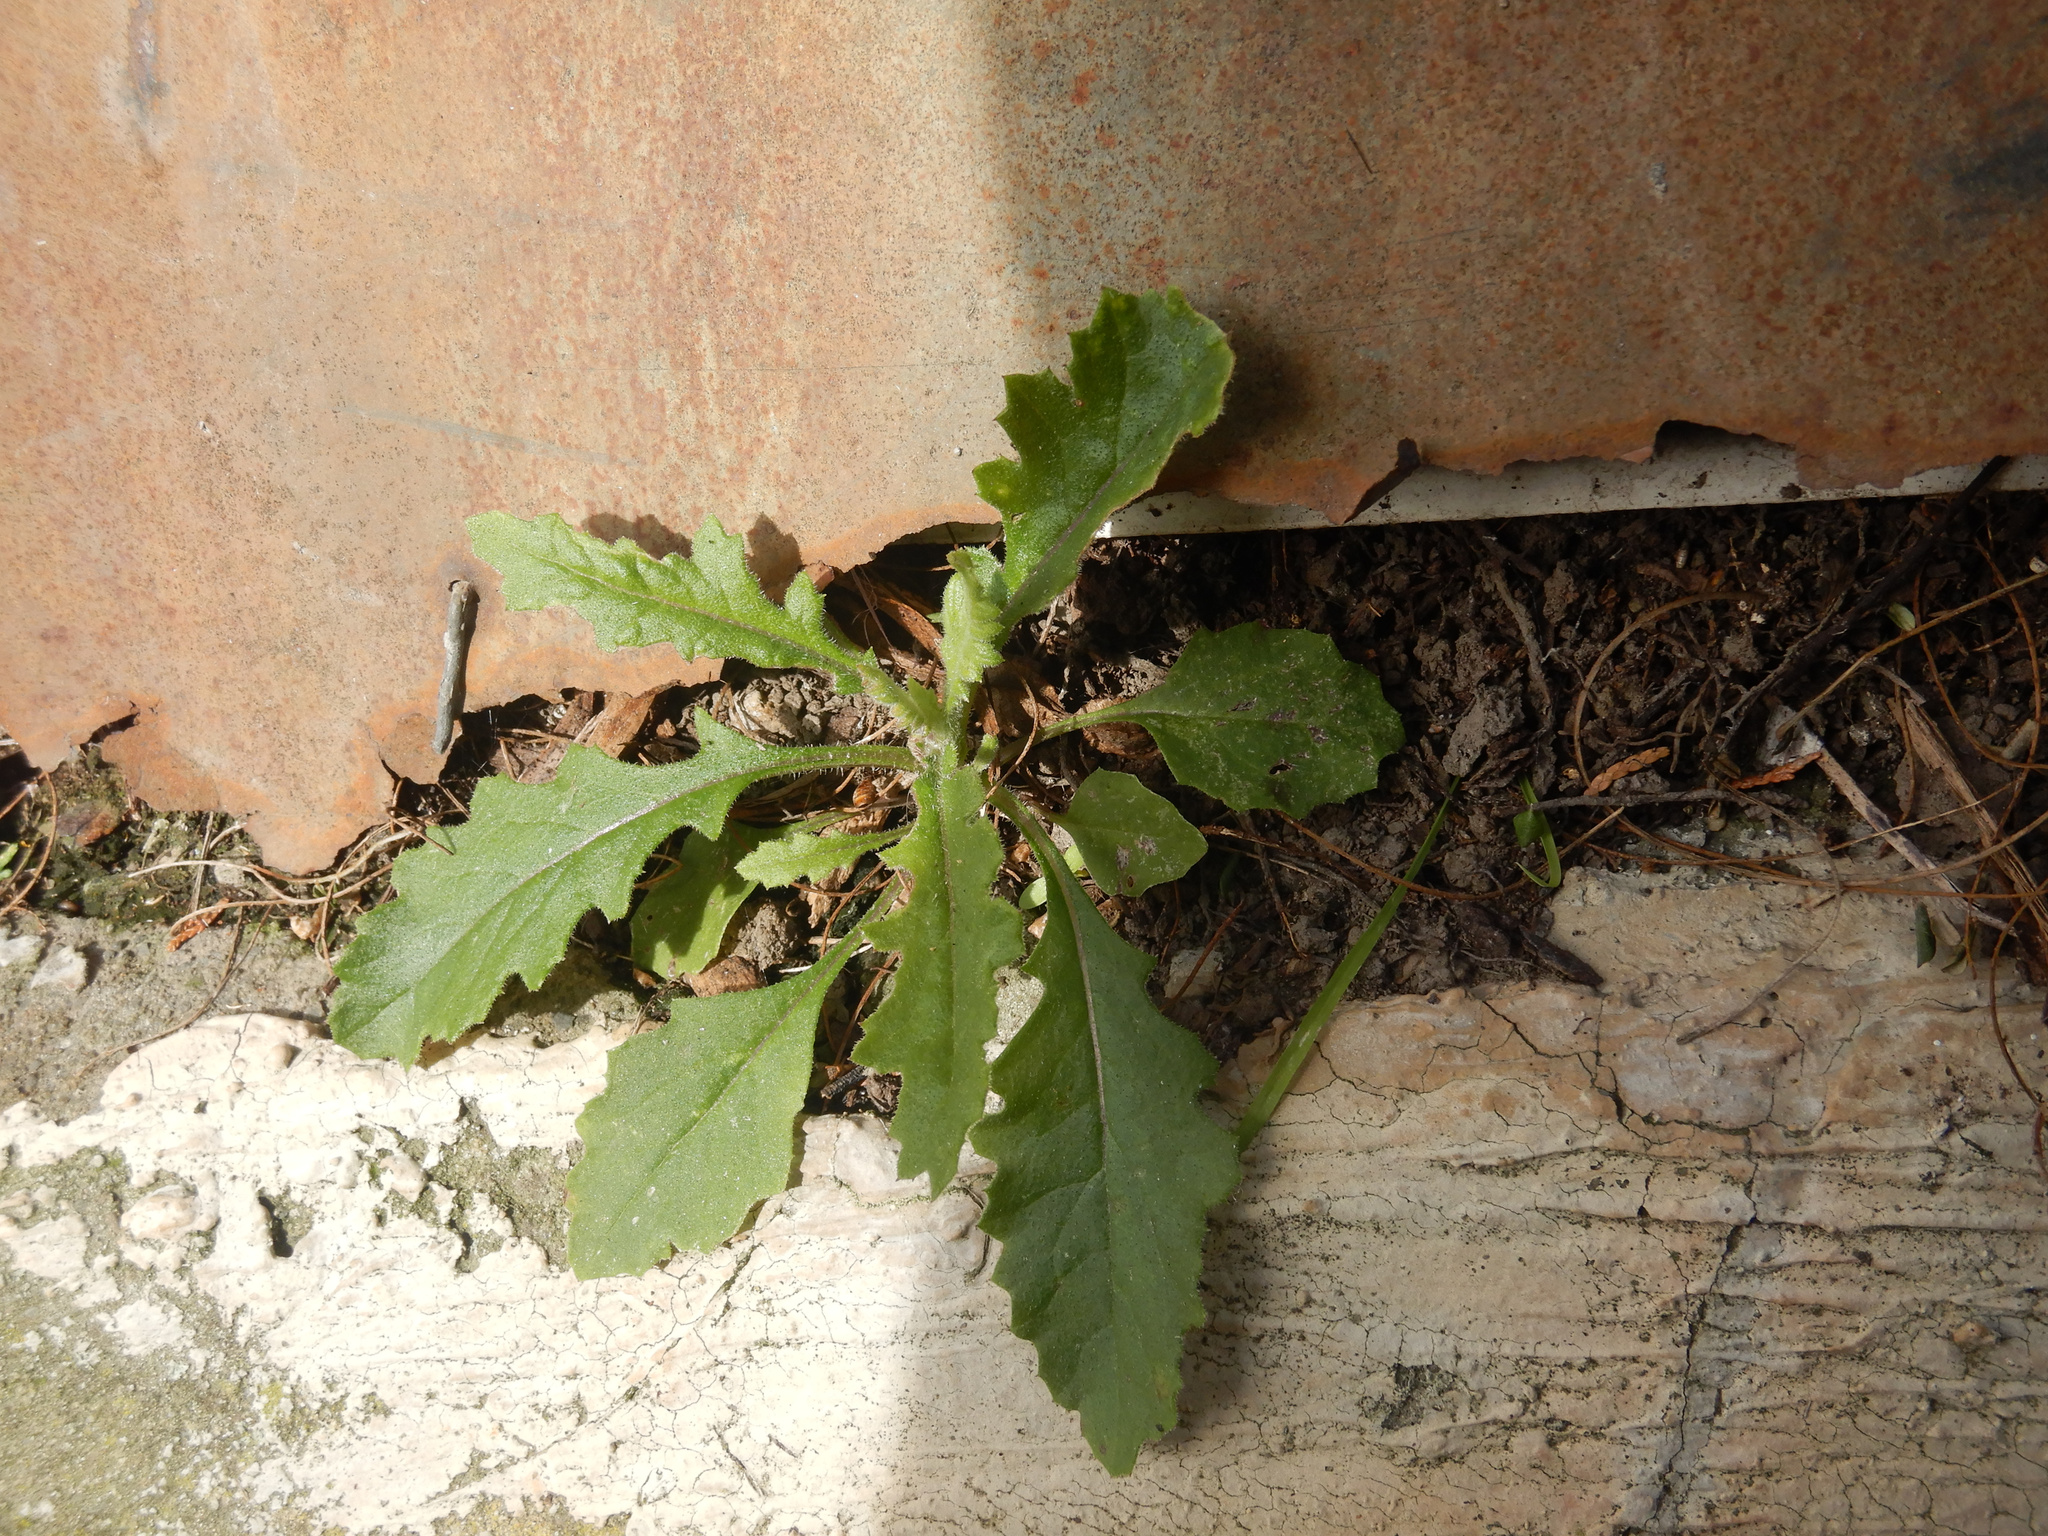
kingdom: Plantae
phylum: Tracheophyta
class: Magnoliopsida
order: Asterales
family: Asteraceae
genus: Senecio
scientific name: Senecio glomeratus
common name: Cutleaf burnweed
